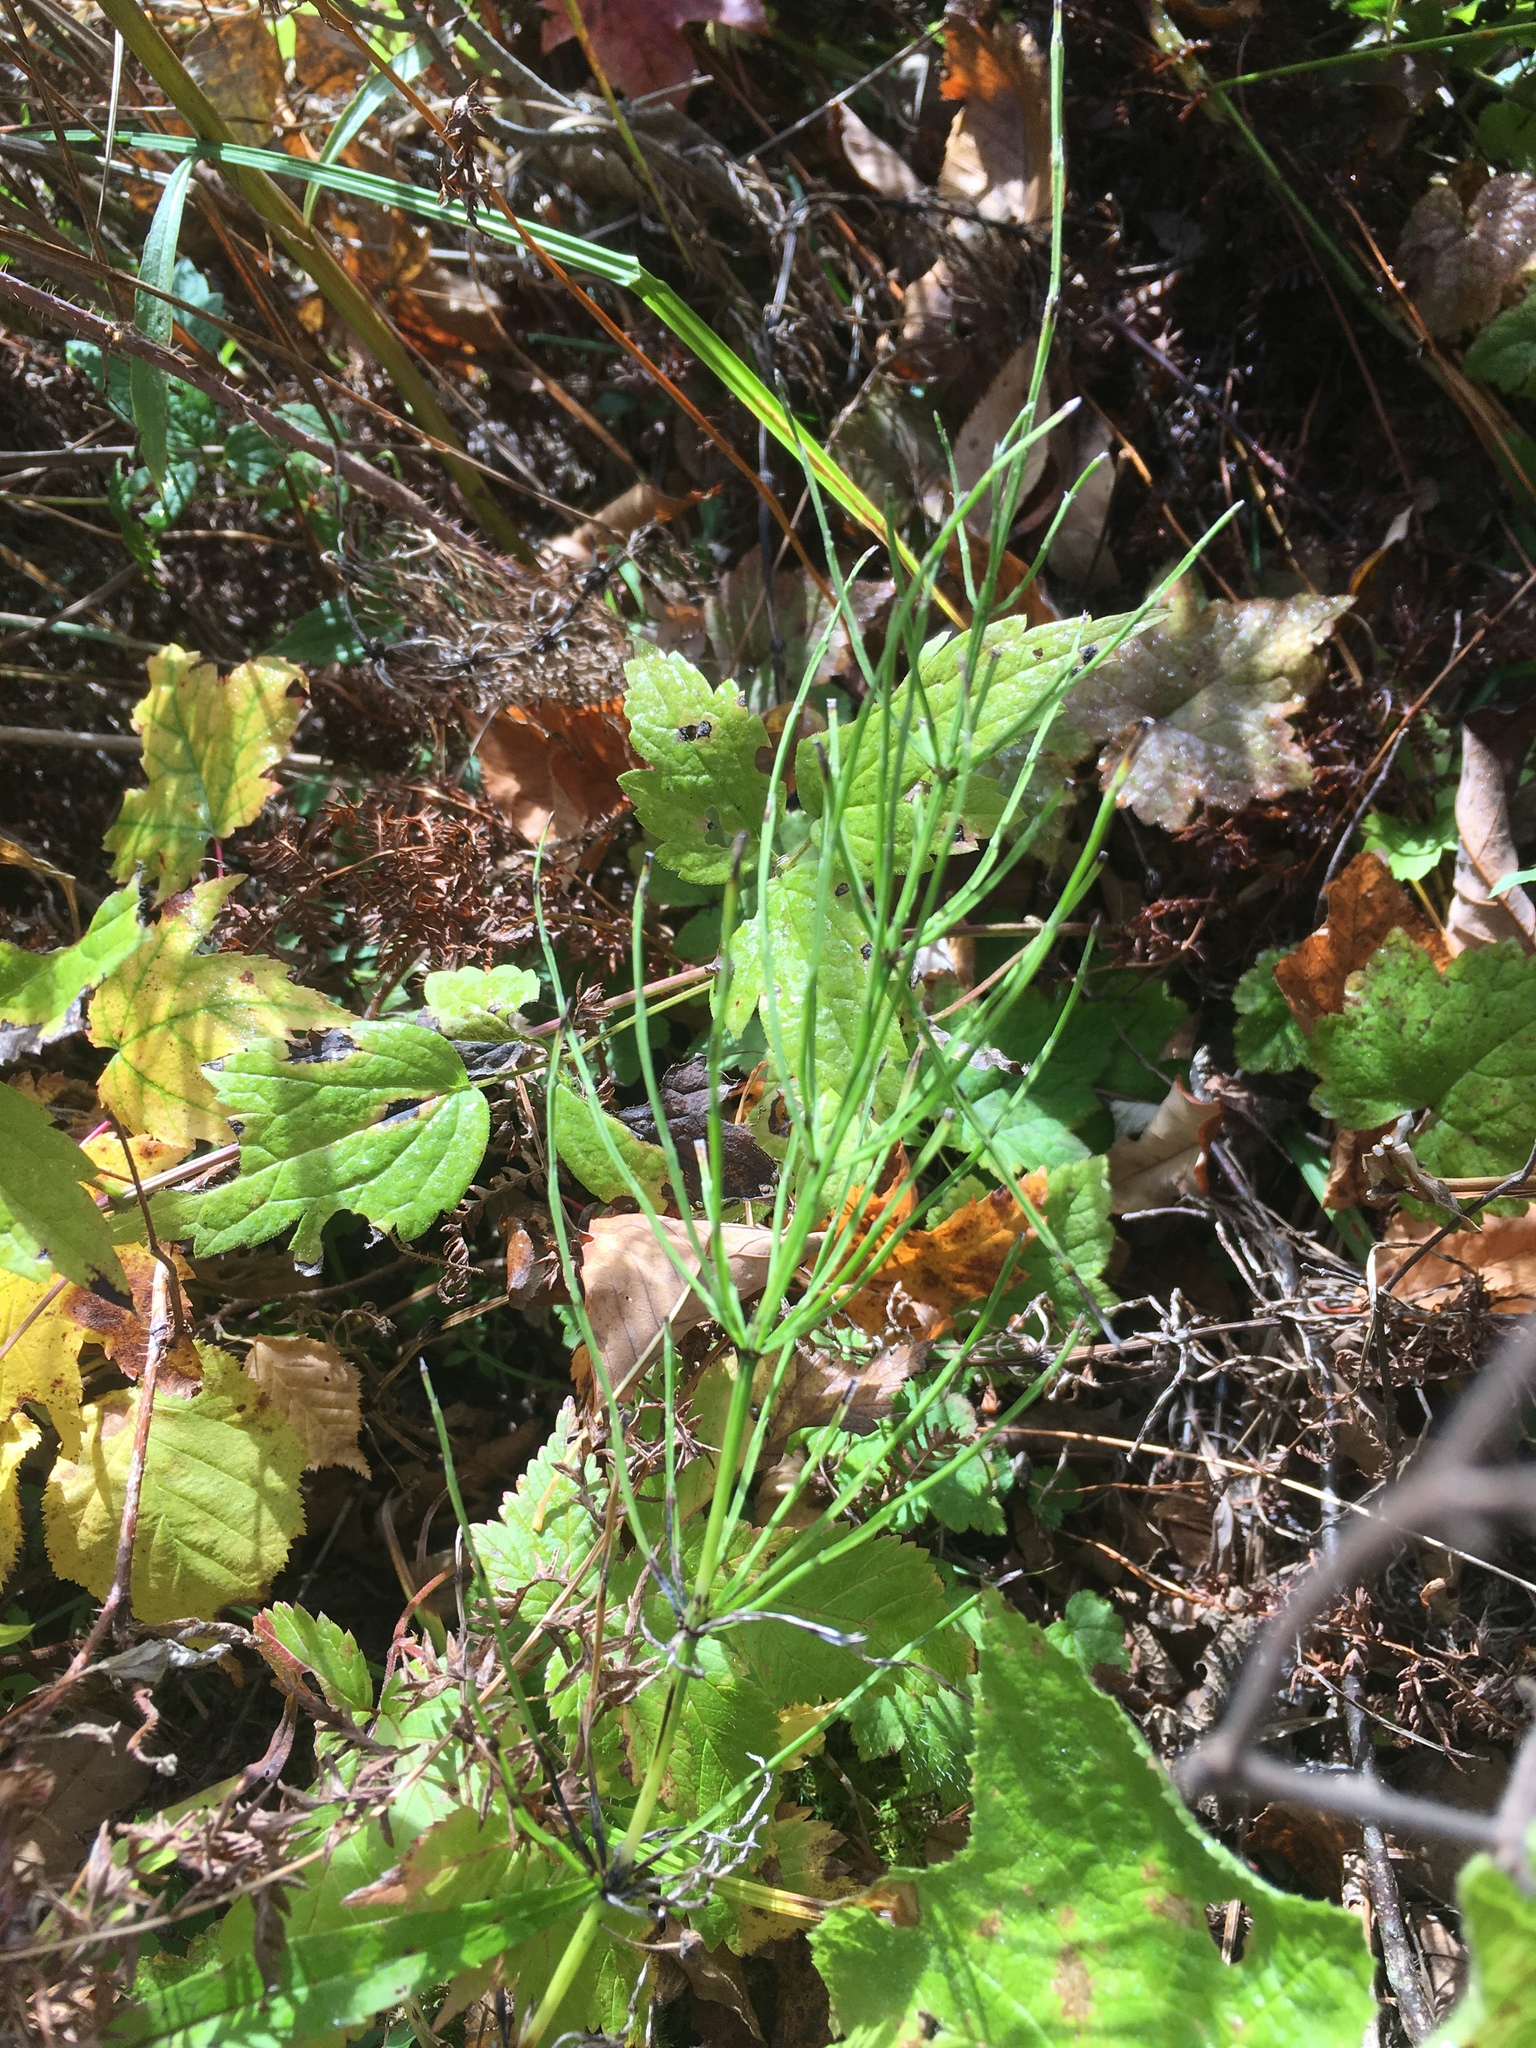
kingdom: Plantae
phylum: Tracheophyta
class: Polypodiopsida
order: Equisetales
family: Equisetaceae
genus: Equisetum
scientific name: Equisetum arvense
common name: Field horsetail
